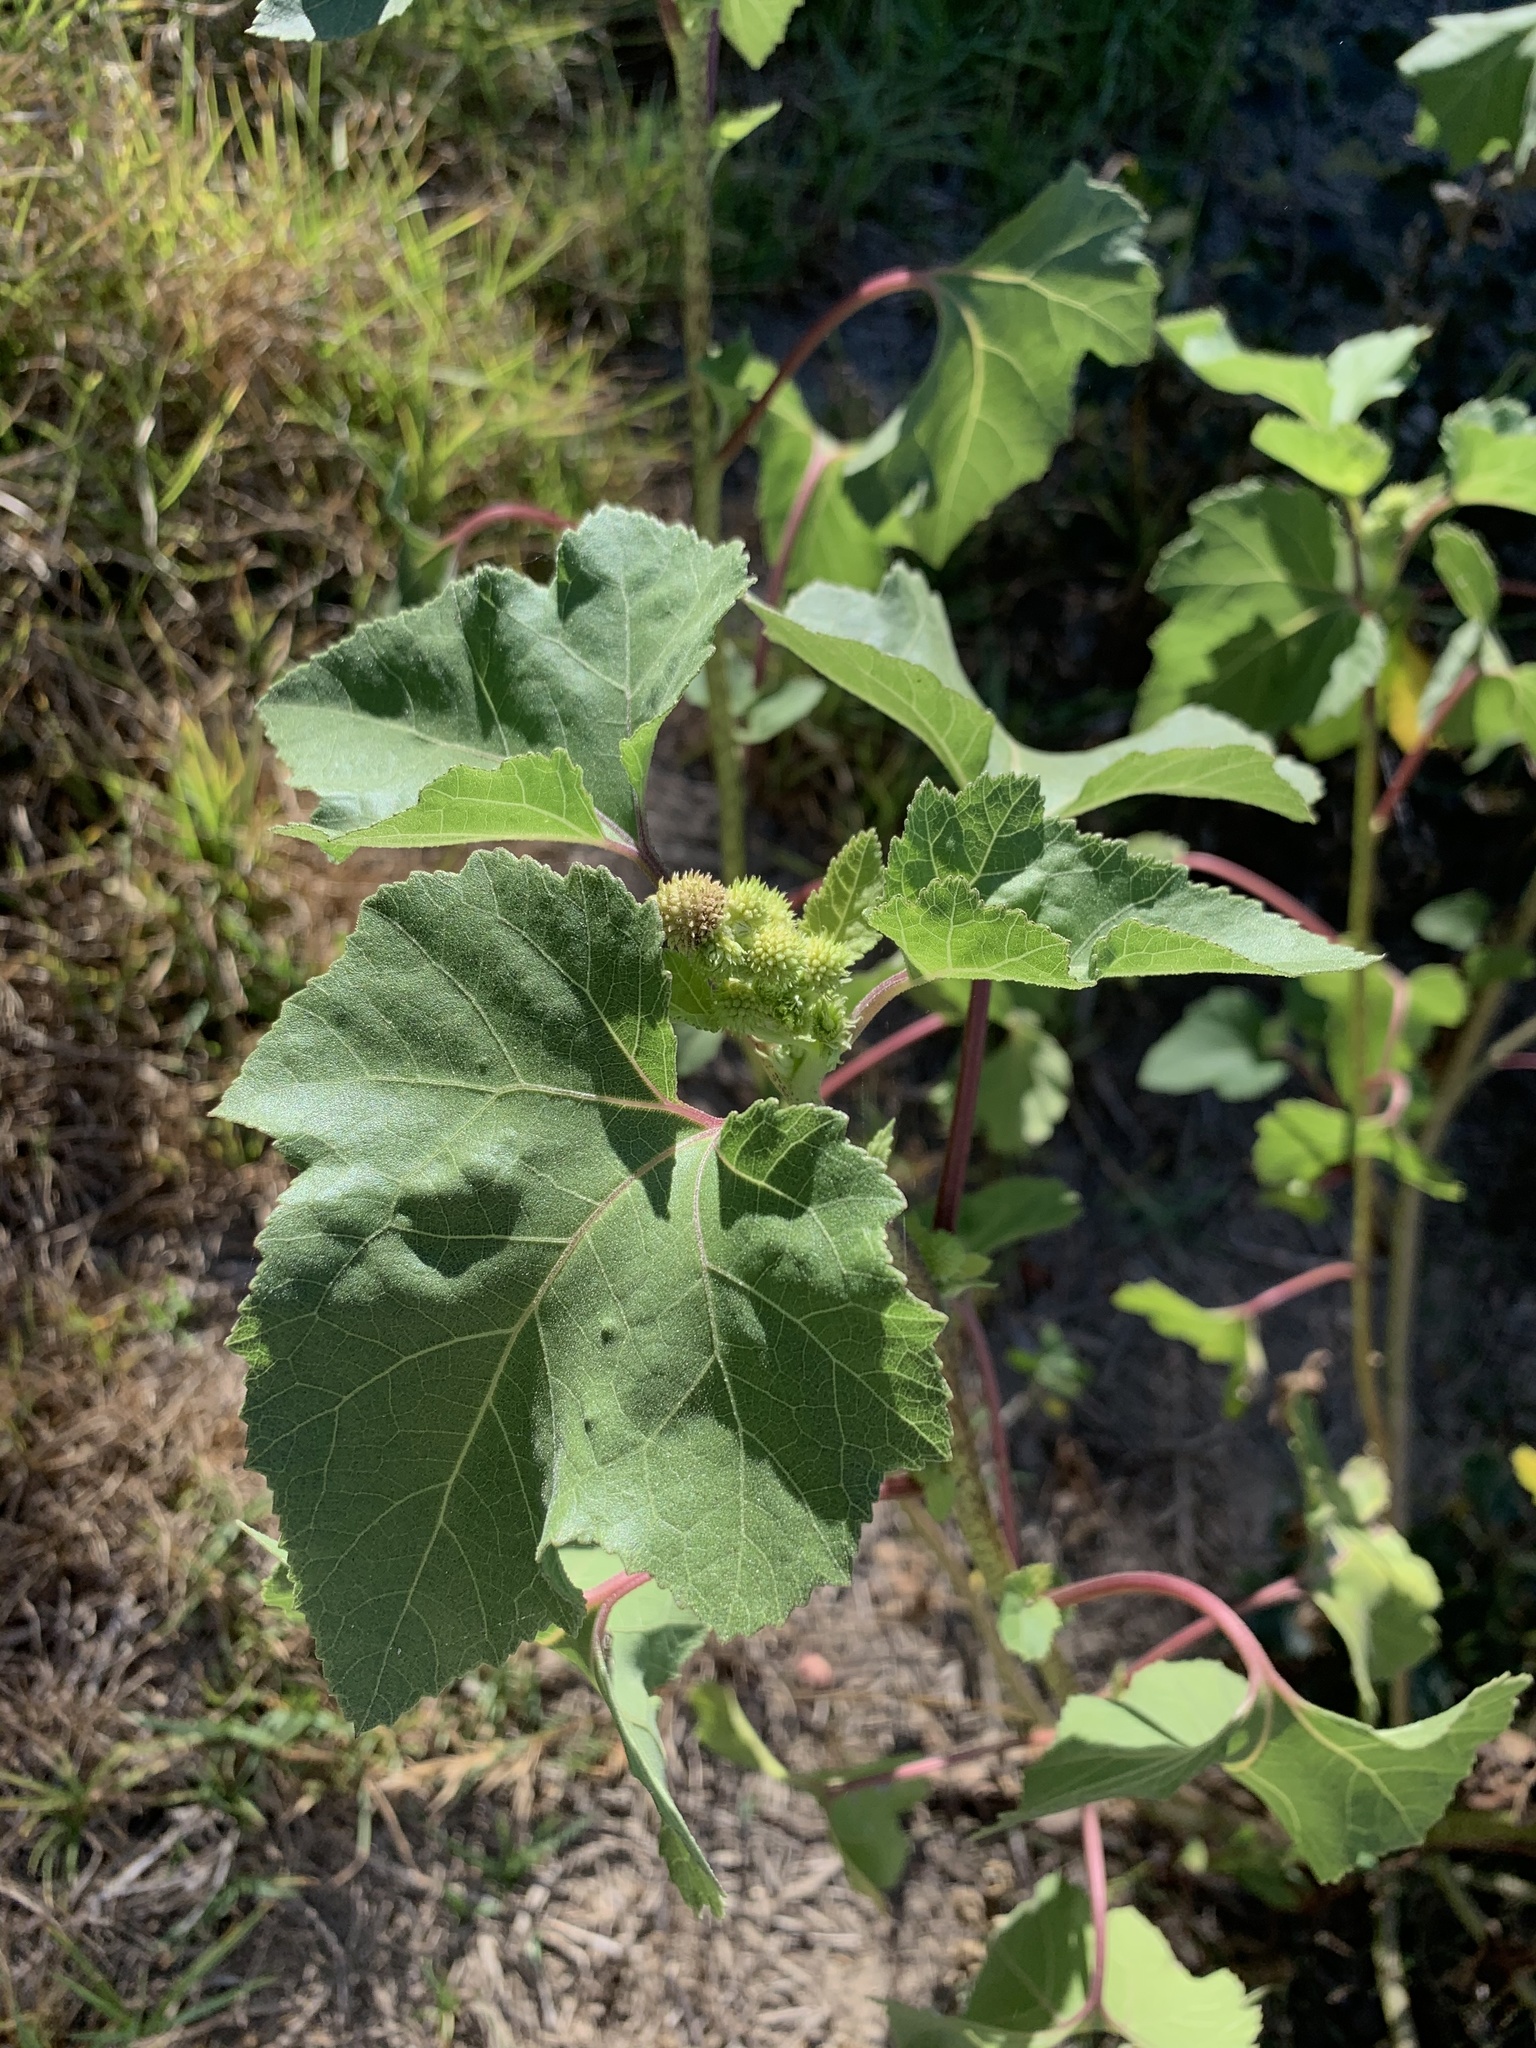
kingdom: Plantae
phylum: Tracheophyta
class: Magnoliopsida
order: Asterales
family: Asteraceae
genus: Xanthium
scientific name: Xanthium strumarium
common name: Rough cocklebur
